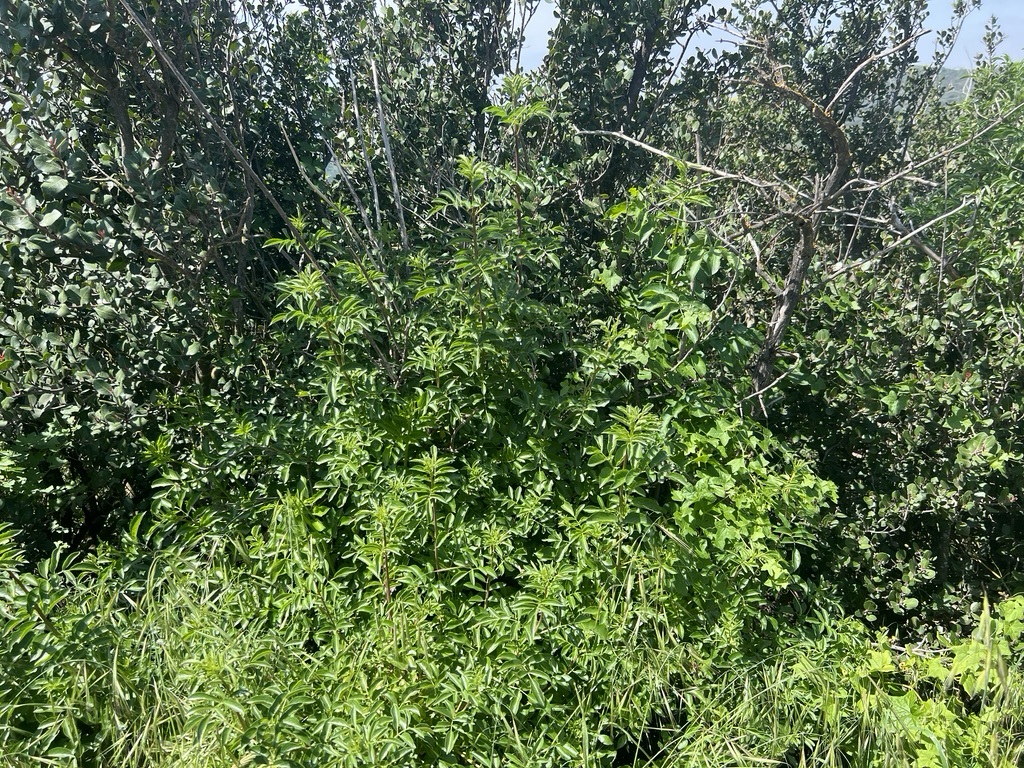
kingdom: Plantae
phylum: Tracheophyta
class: Magnoliopsida
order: Dipsacales
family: Viburnaceae
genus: Sambucus
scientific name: Sambucus cerulea
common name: Blue elder
